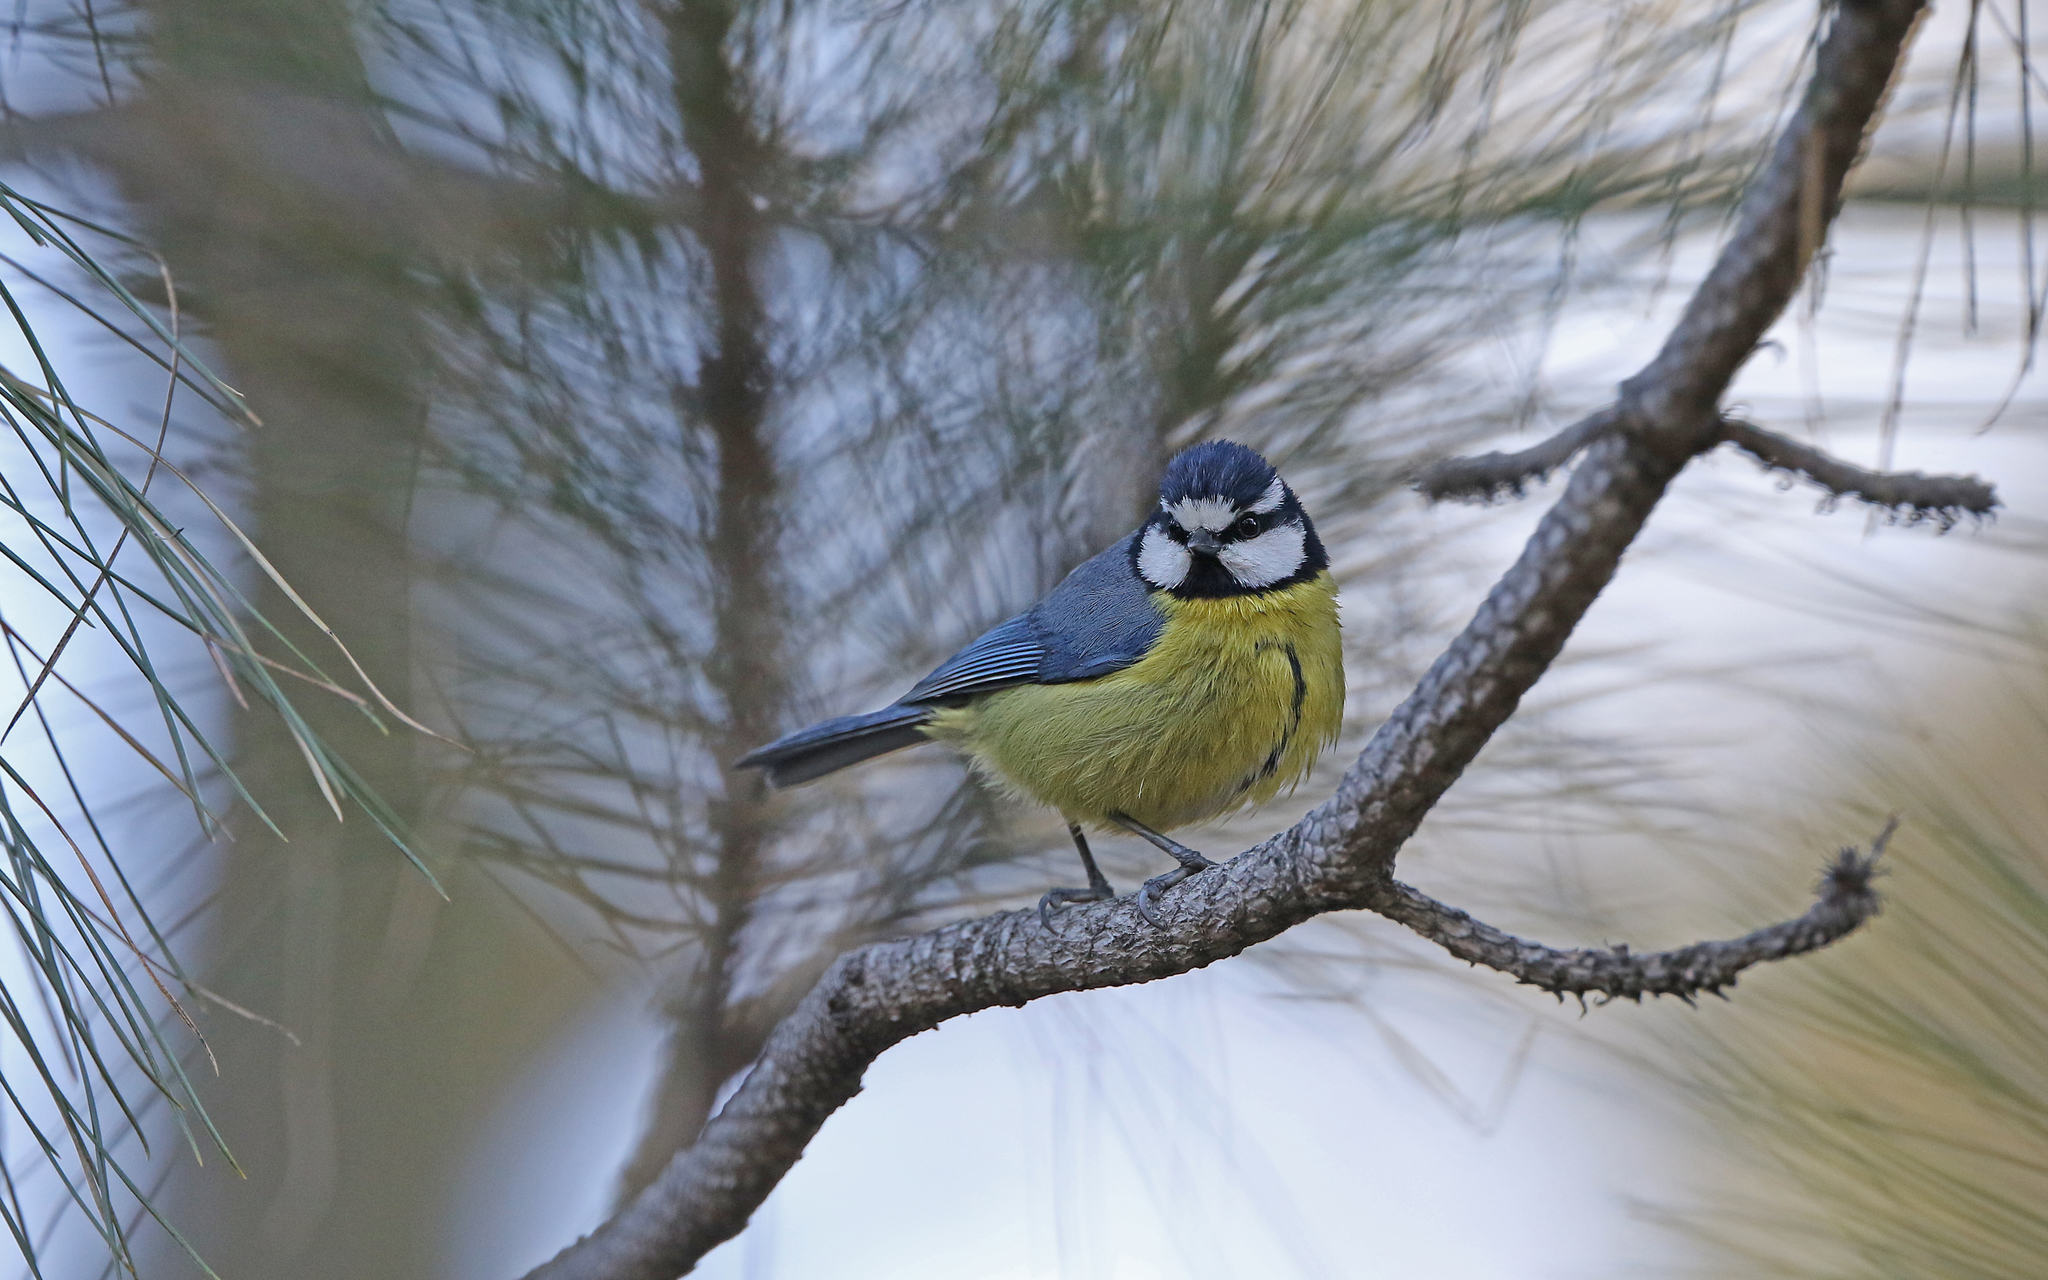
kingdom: Animalia
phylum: Chordata
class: Aves
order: Passeriformes
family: Paridae
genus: Cyanistes
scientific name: Cyanistes teneriffae
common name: African blue tit
